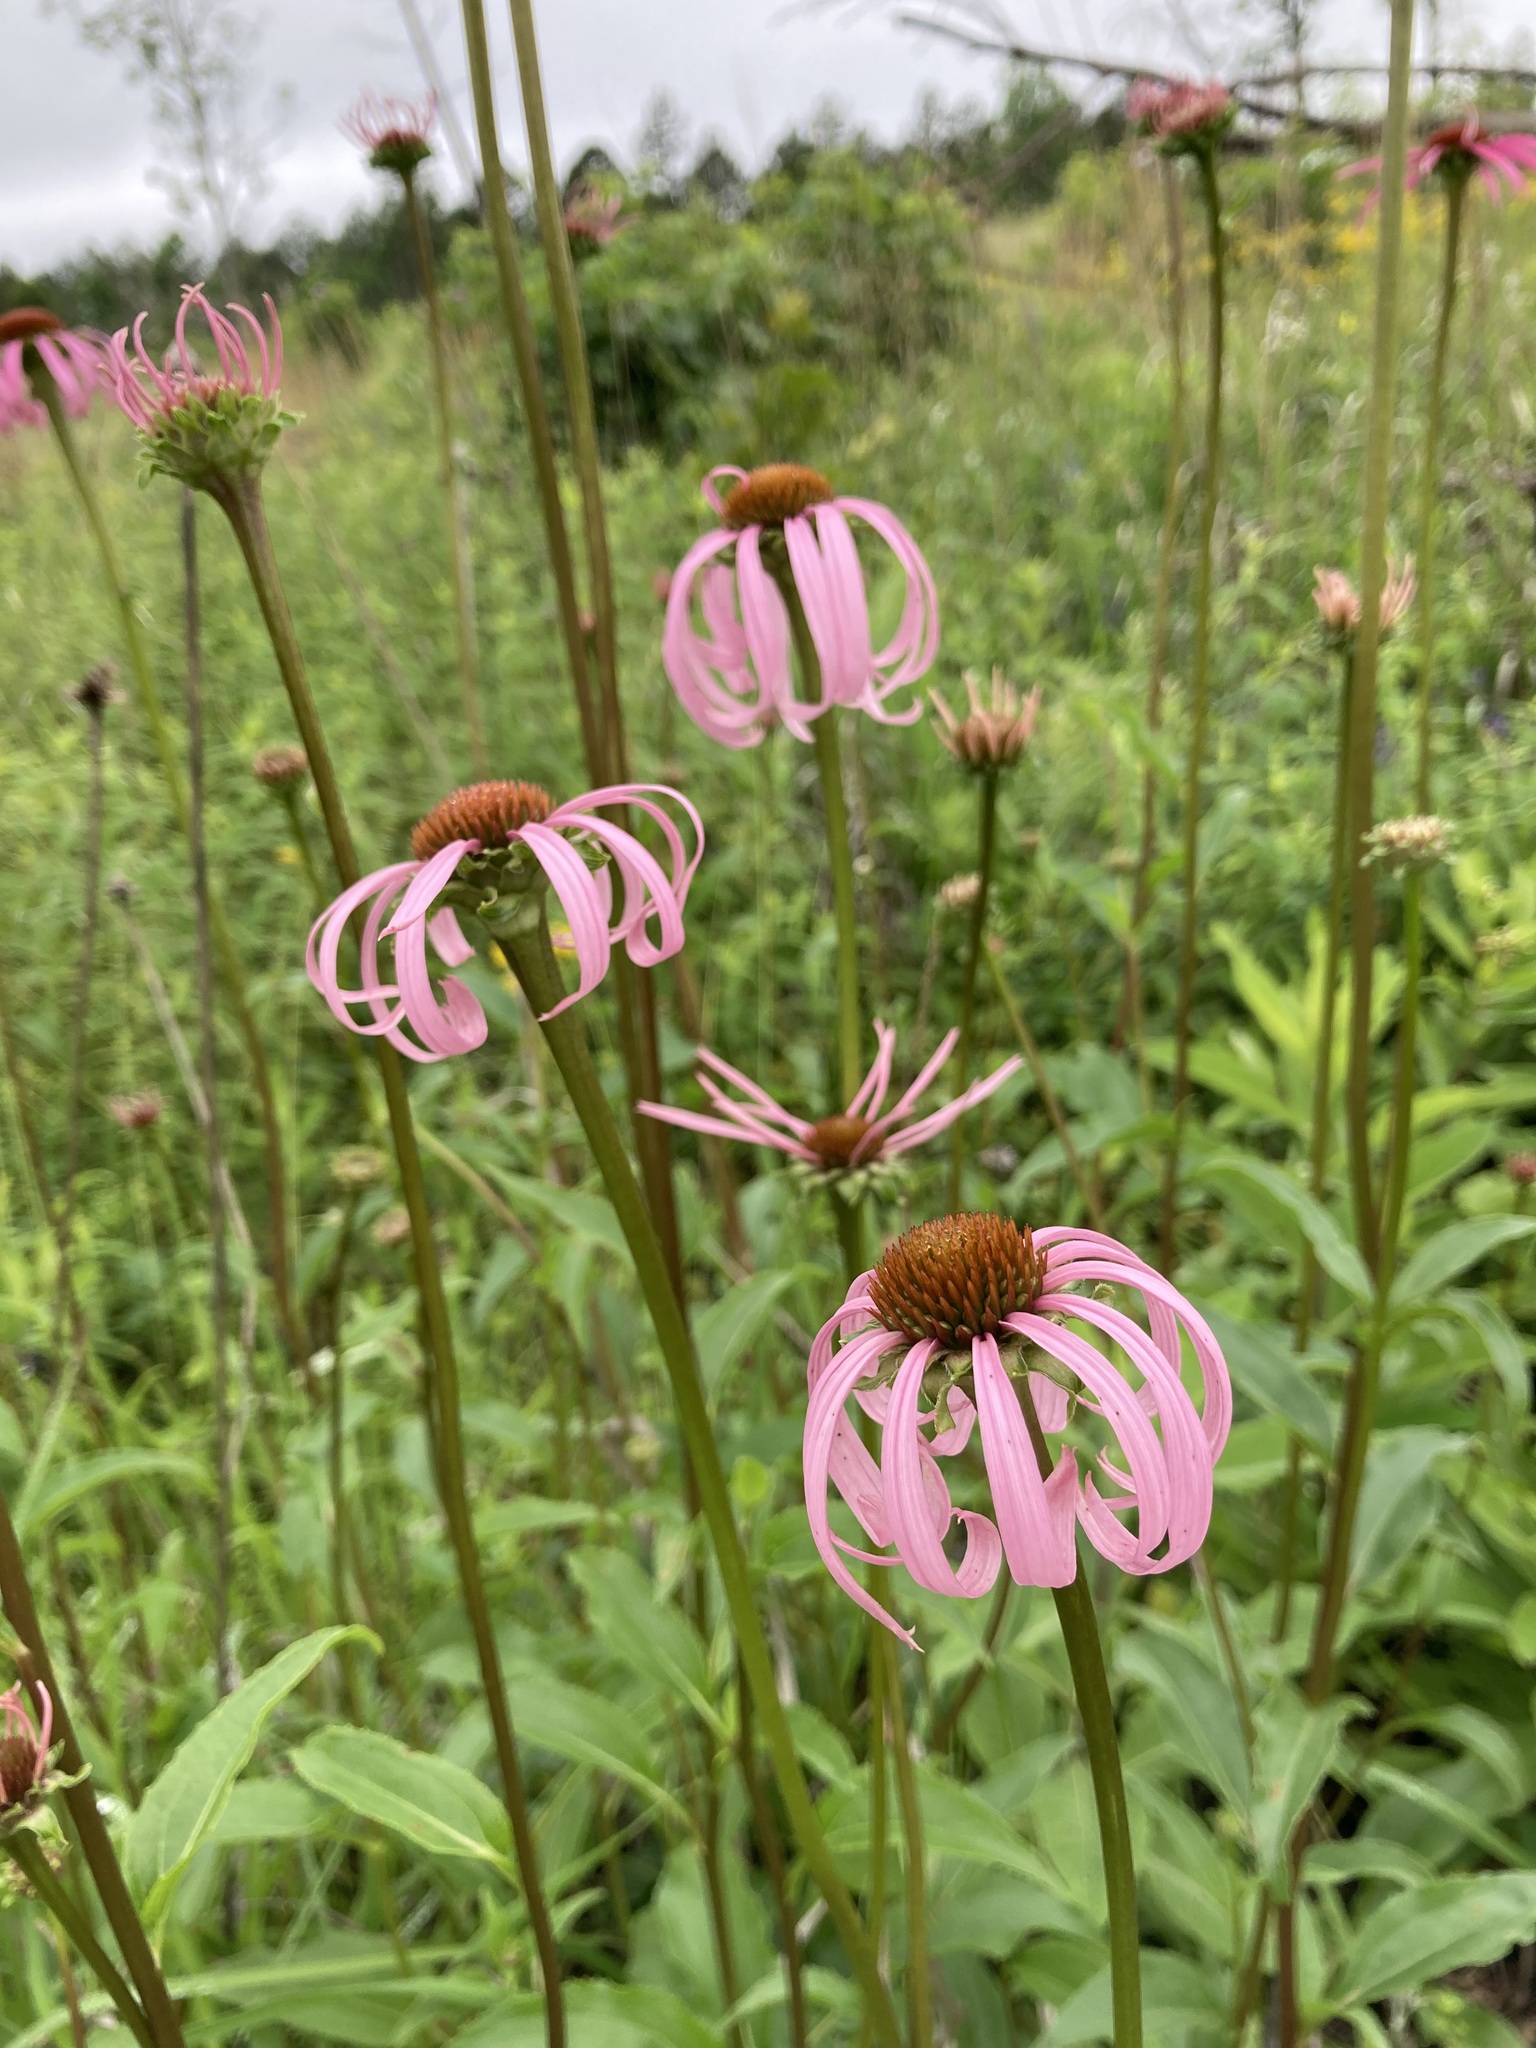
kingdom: Plantae
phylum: Tracheophyta
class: Magnoliopsida
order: Asterales
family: Asteraceae
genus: Echinacea
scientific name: Echinacea laevigata
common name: Smooth coneflower
